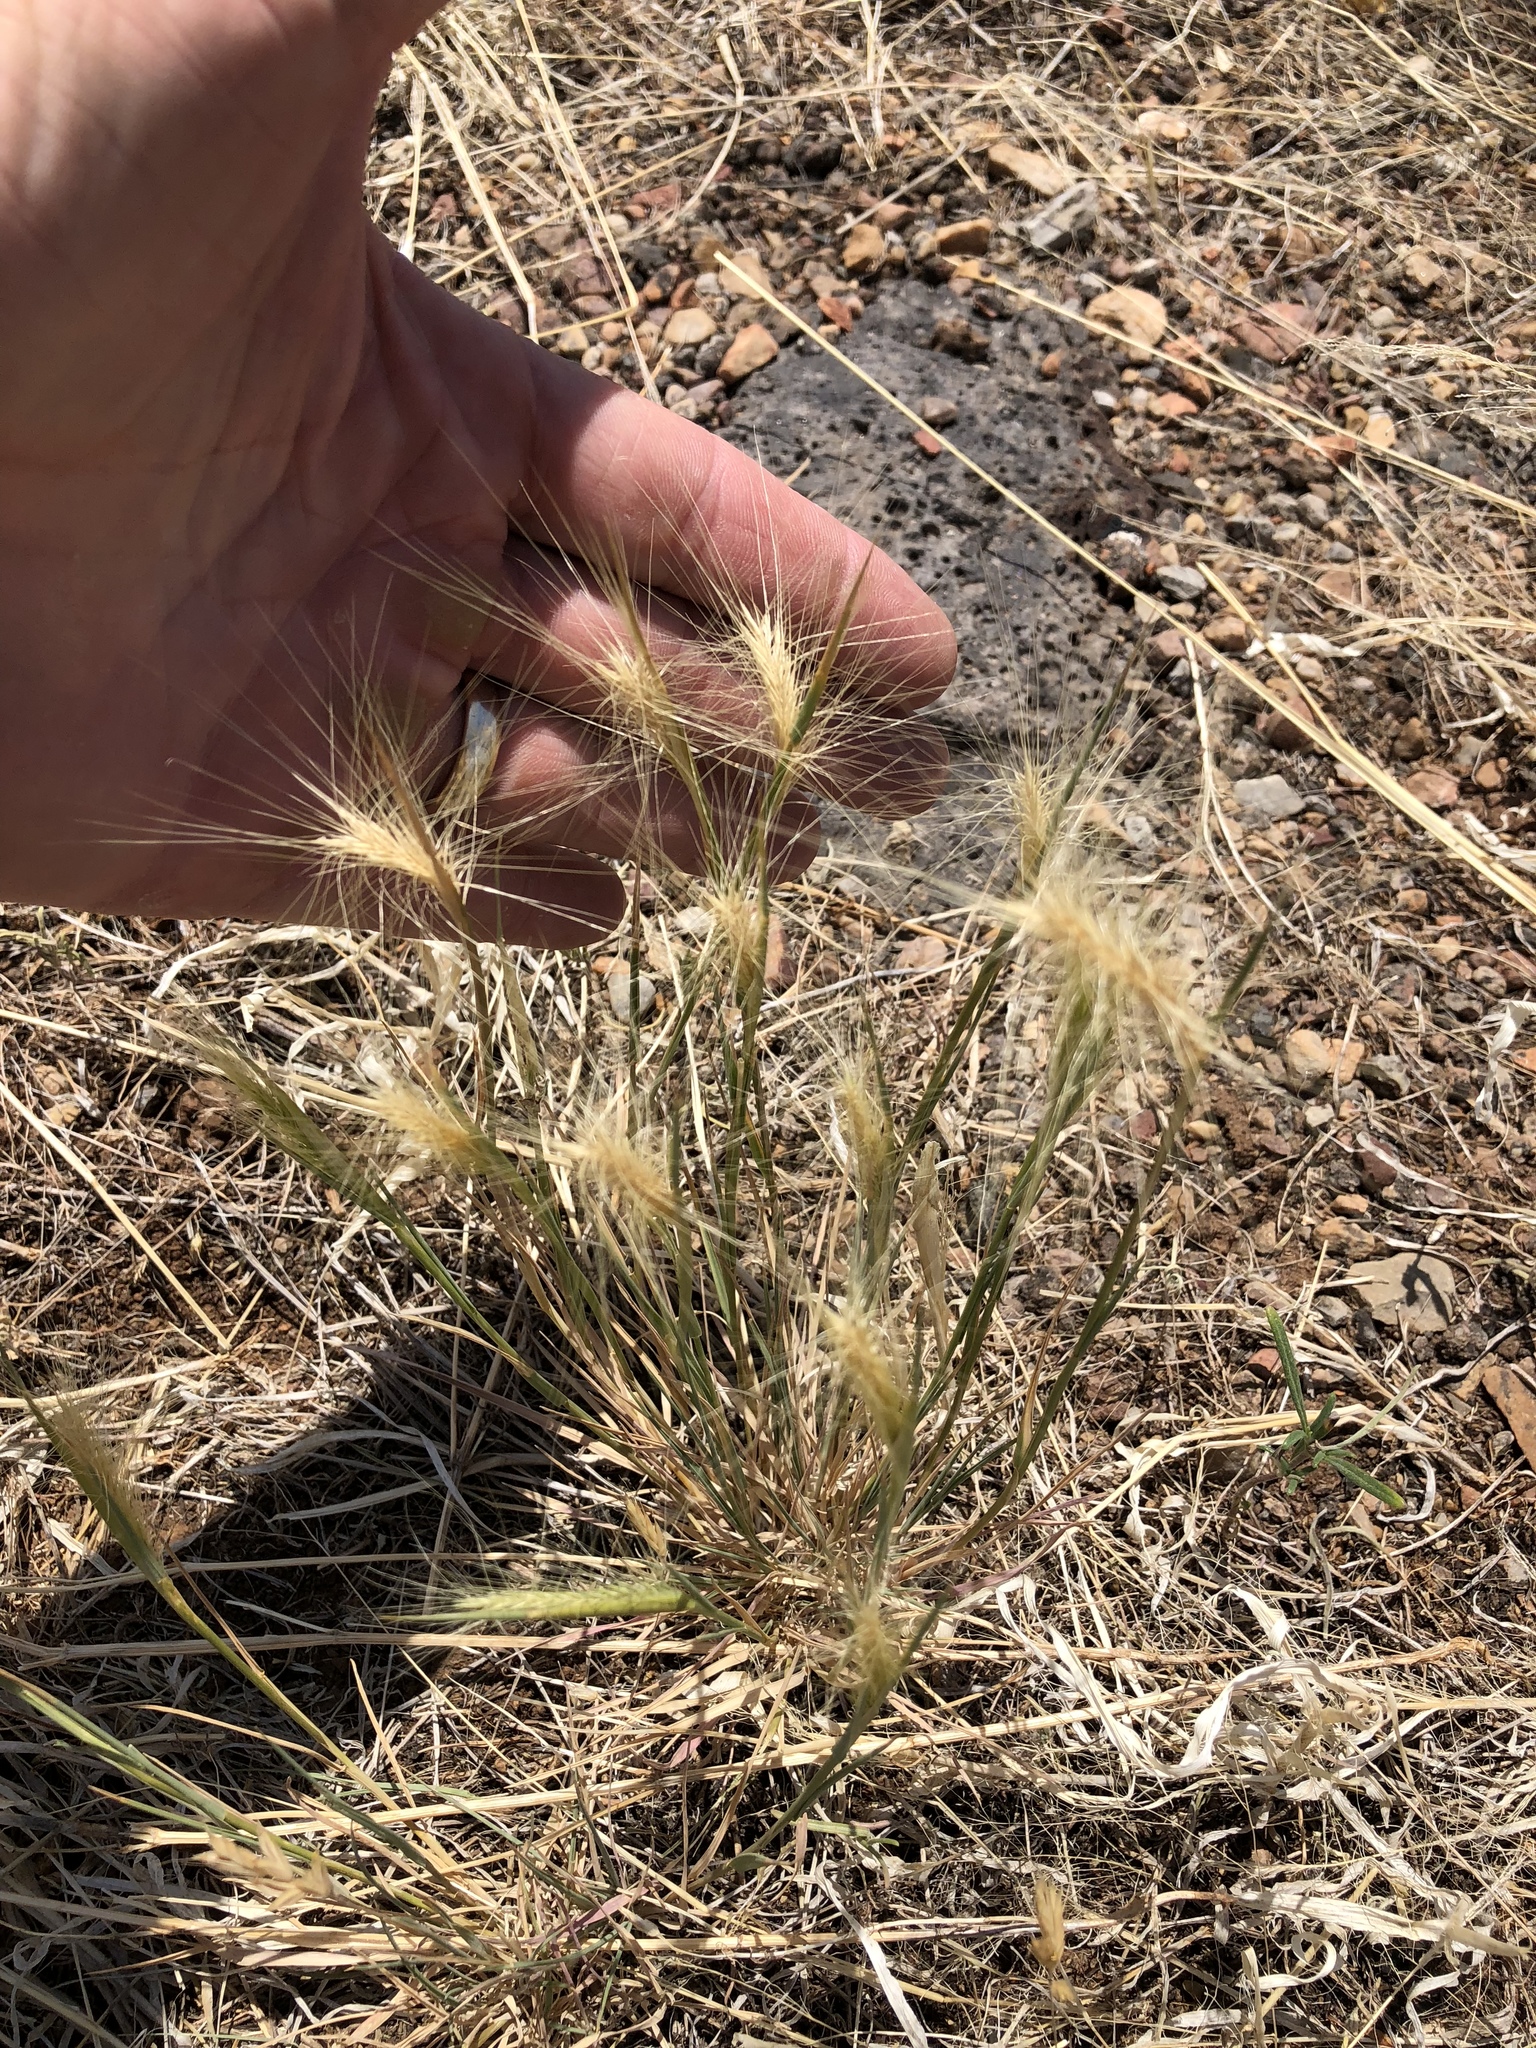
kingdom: Plantae
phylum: Tracheophyta
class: Liliopsida
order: Poales
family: Poaceae
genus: Elymus
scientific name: Elymus elymoides
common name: Bottlebrush squirreltail
